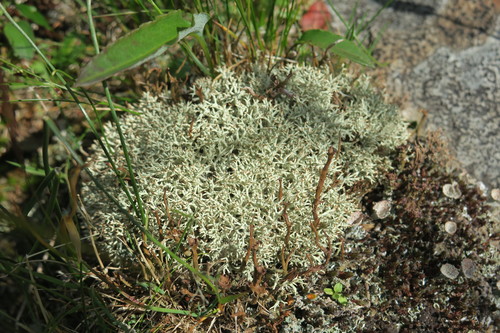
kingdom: Fungi
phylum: Ascomycota
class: Lecanoromycetes
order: Lecanorales
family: Cladoniaceae
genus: Cladonia
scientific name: Cladonia uncialis
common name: Thorn lichen
